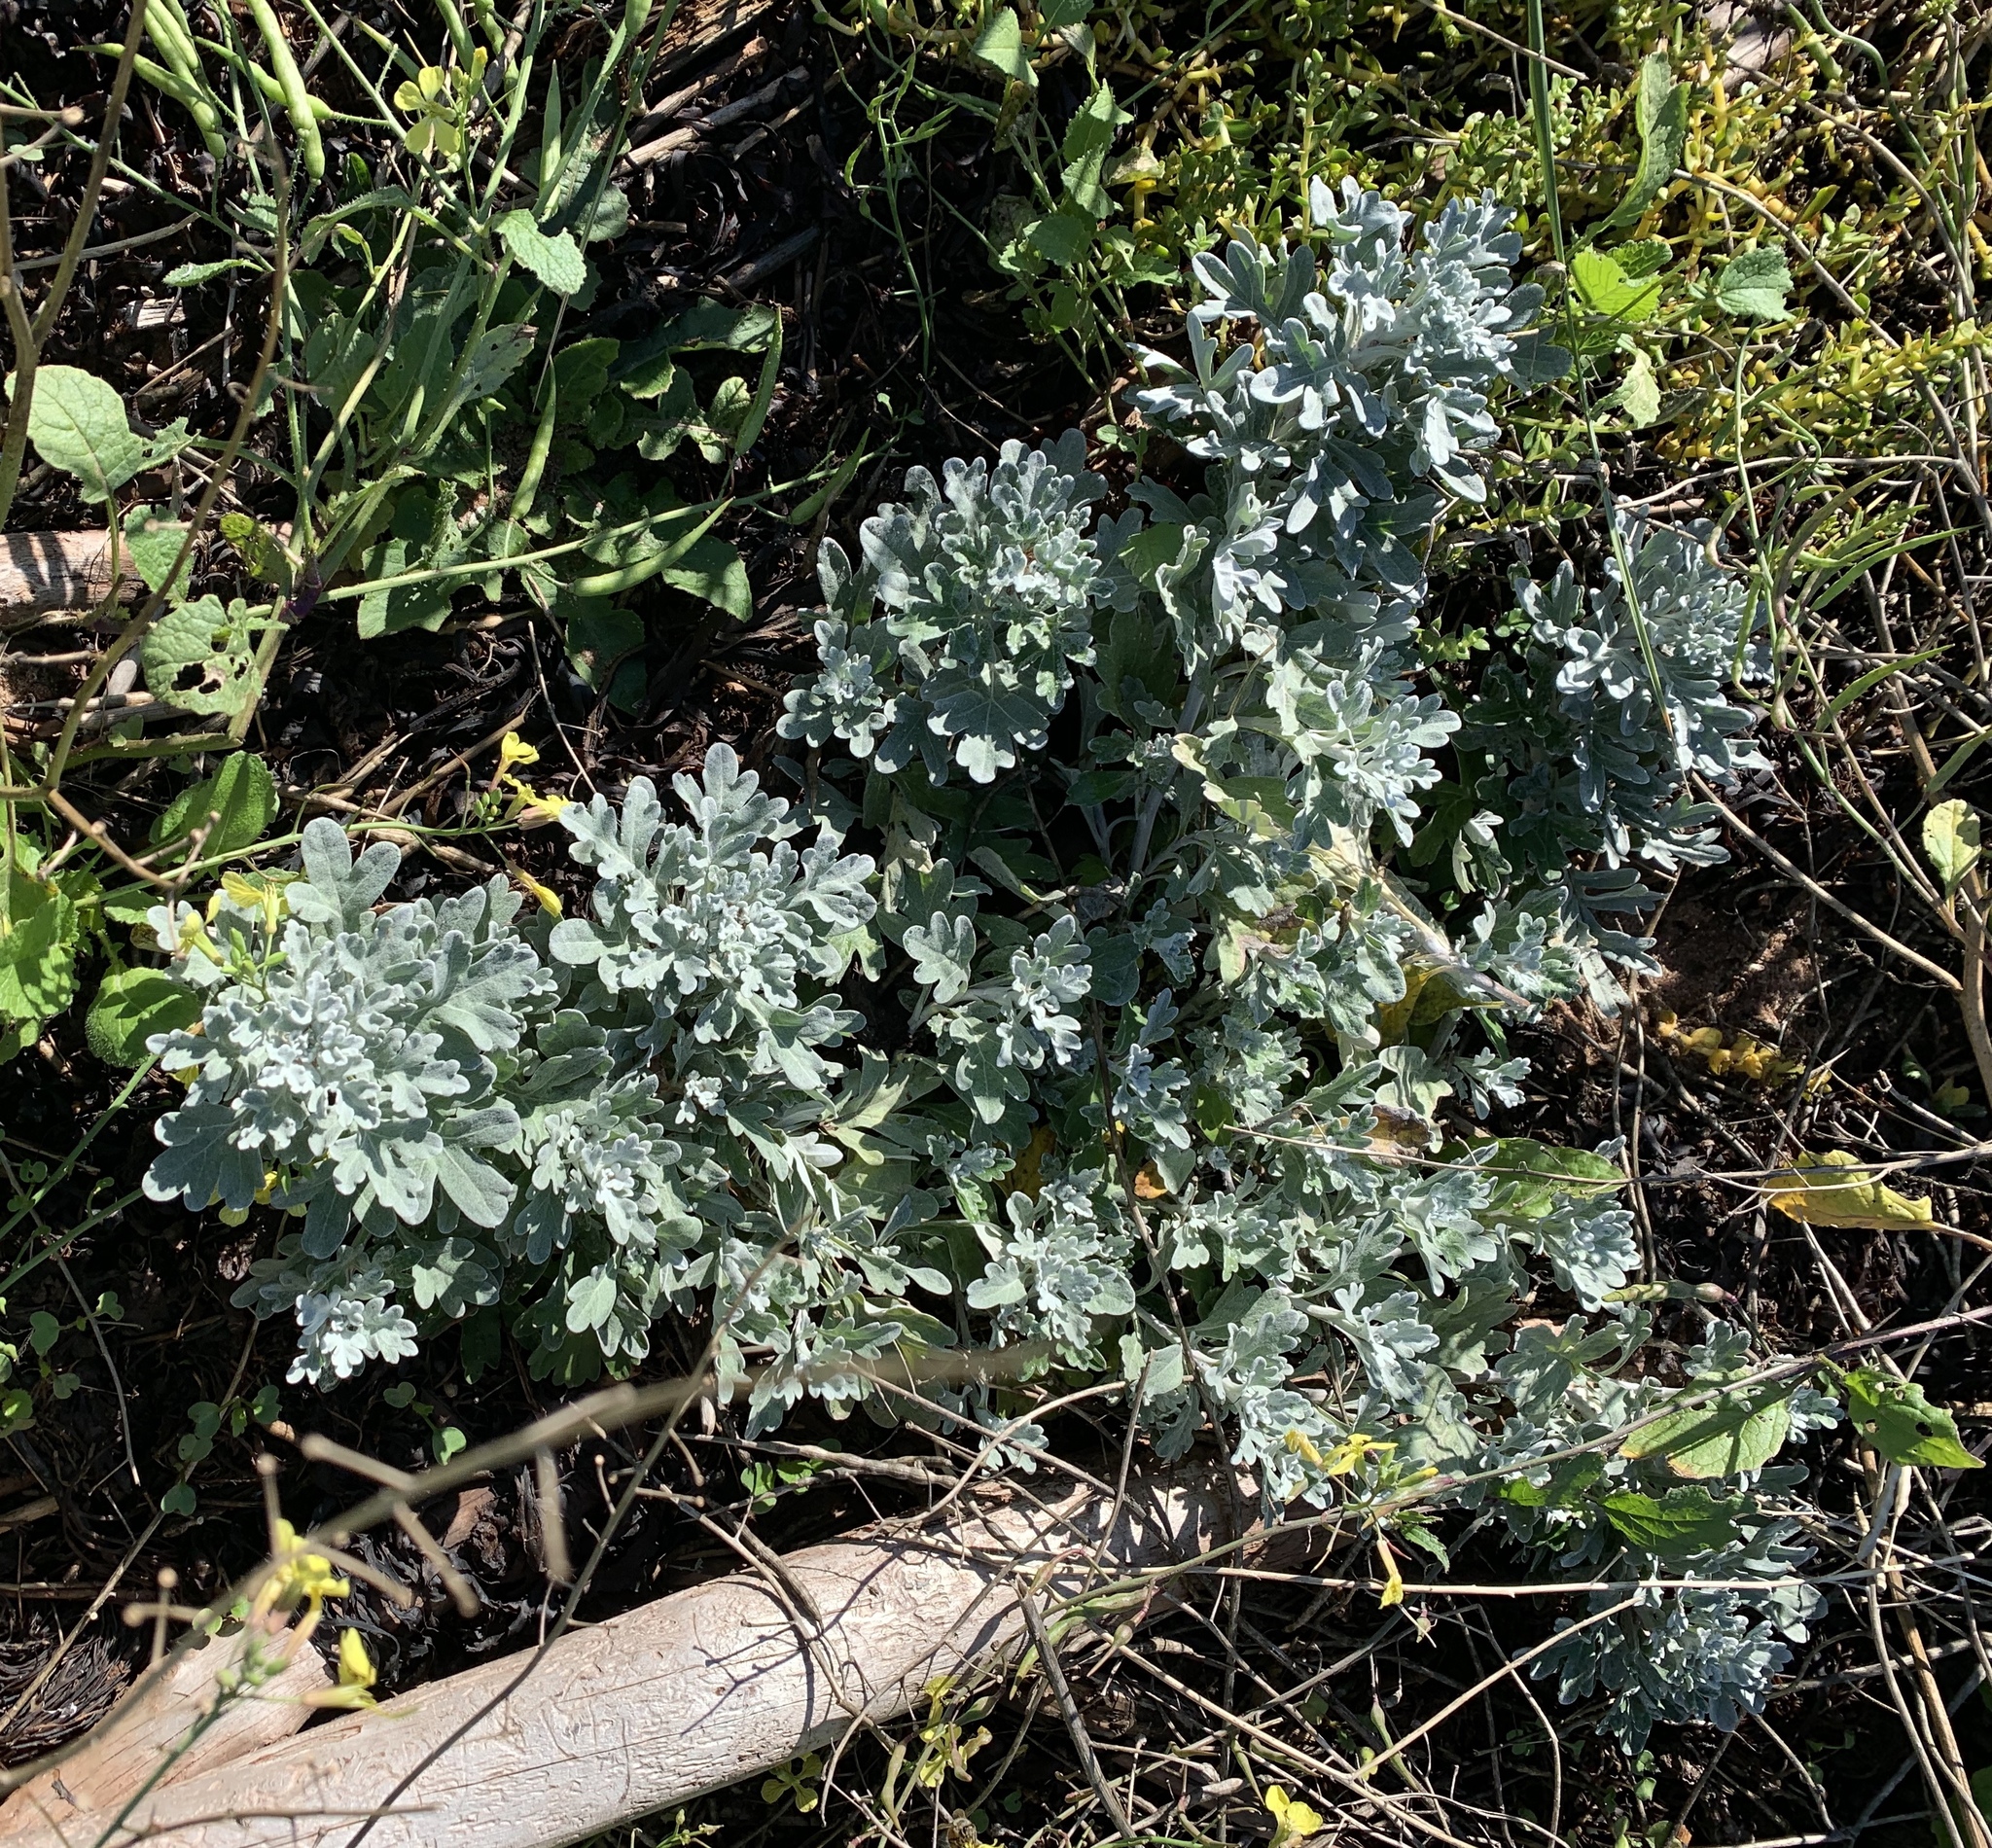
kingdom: Plantae
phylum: Tracheophyta
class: Magnoliopsida
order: Asterales
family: Asteraceae
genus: Artemisia
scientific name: Artemisia stelleriana
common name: Beach wormwood
